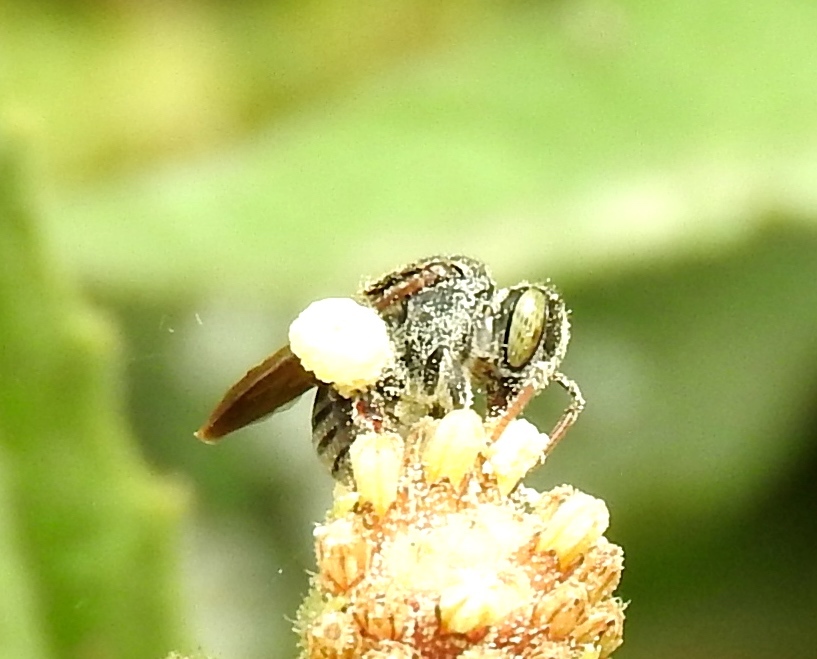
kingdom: Animalia
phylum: Arthropoda
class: Insecta
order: Hymenoptera
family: Apidae
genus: Nannotrigona
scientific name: Nannotrigona perilampoides
